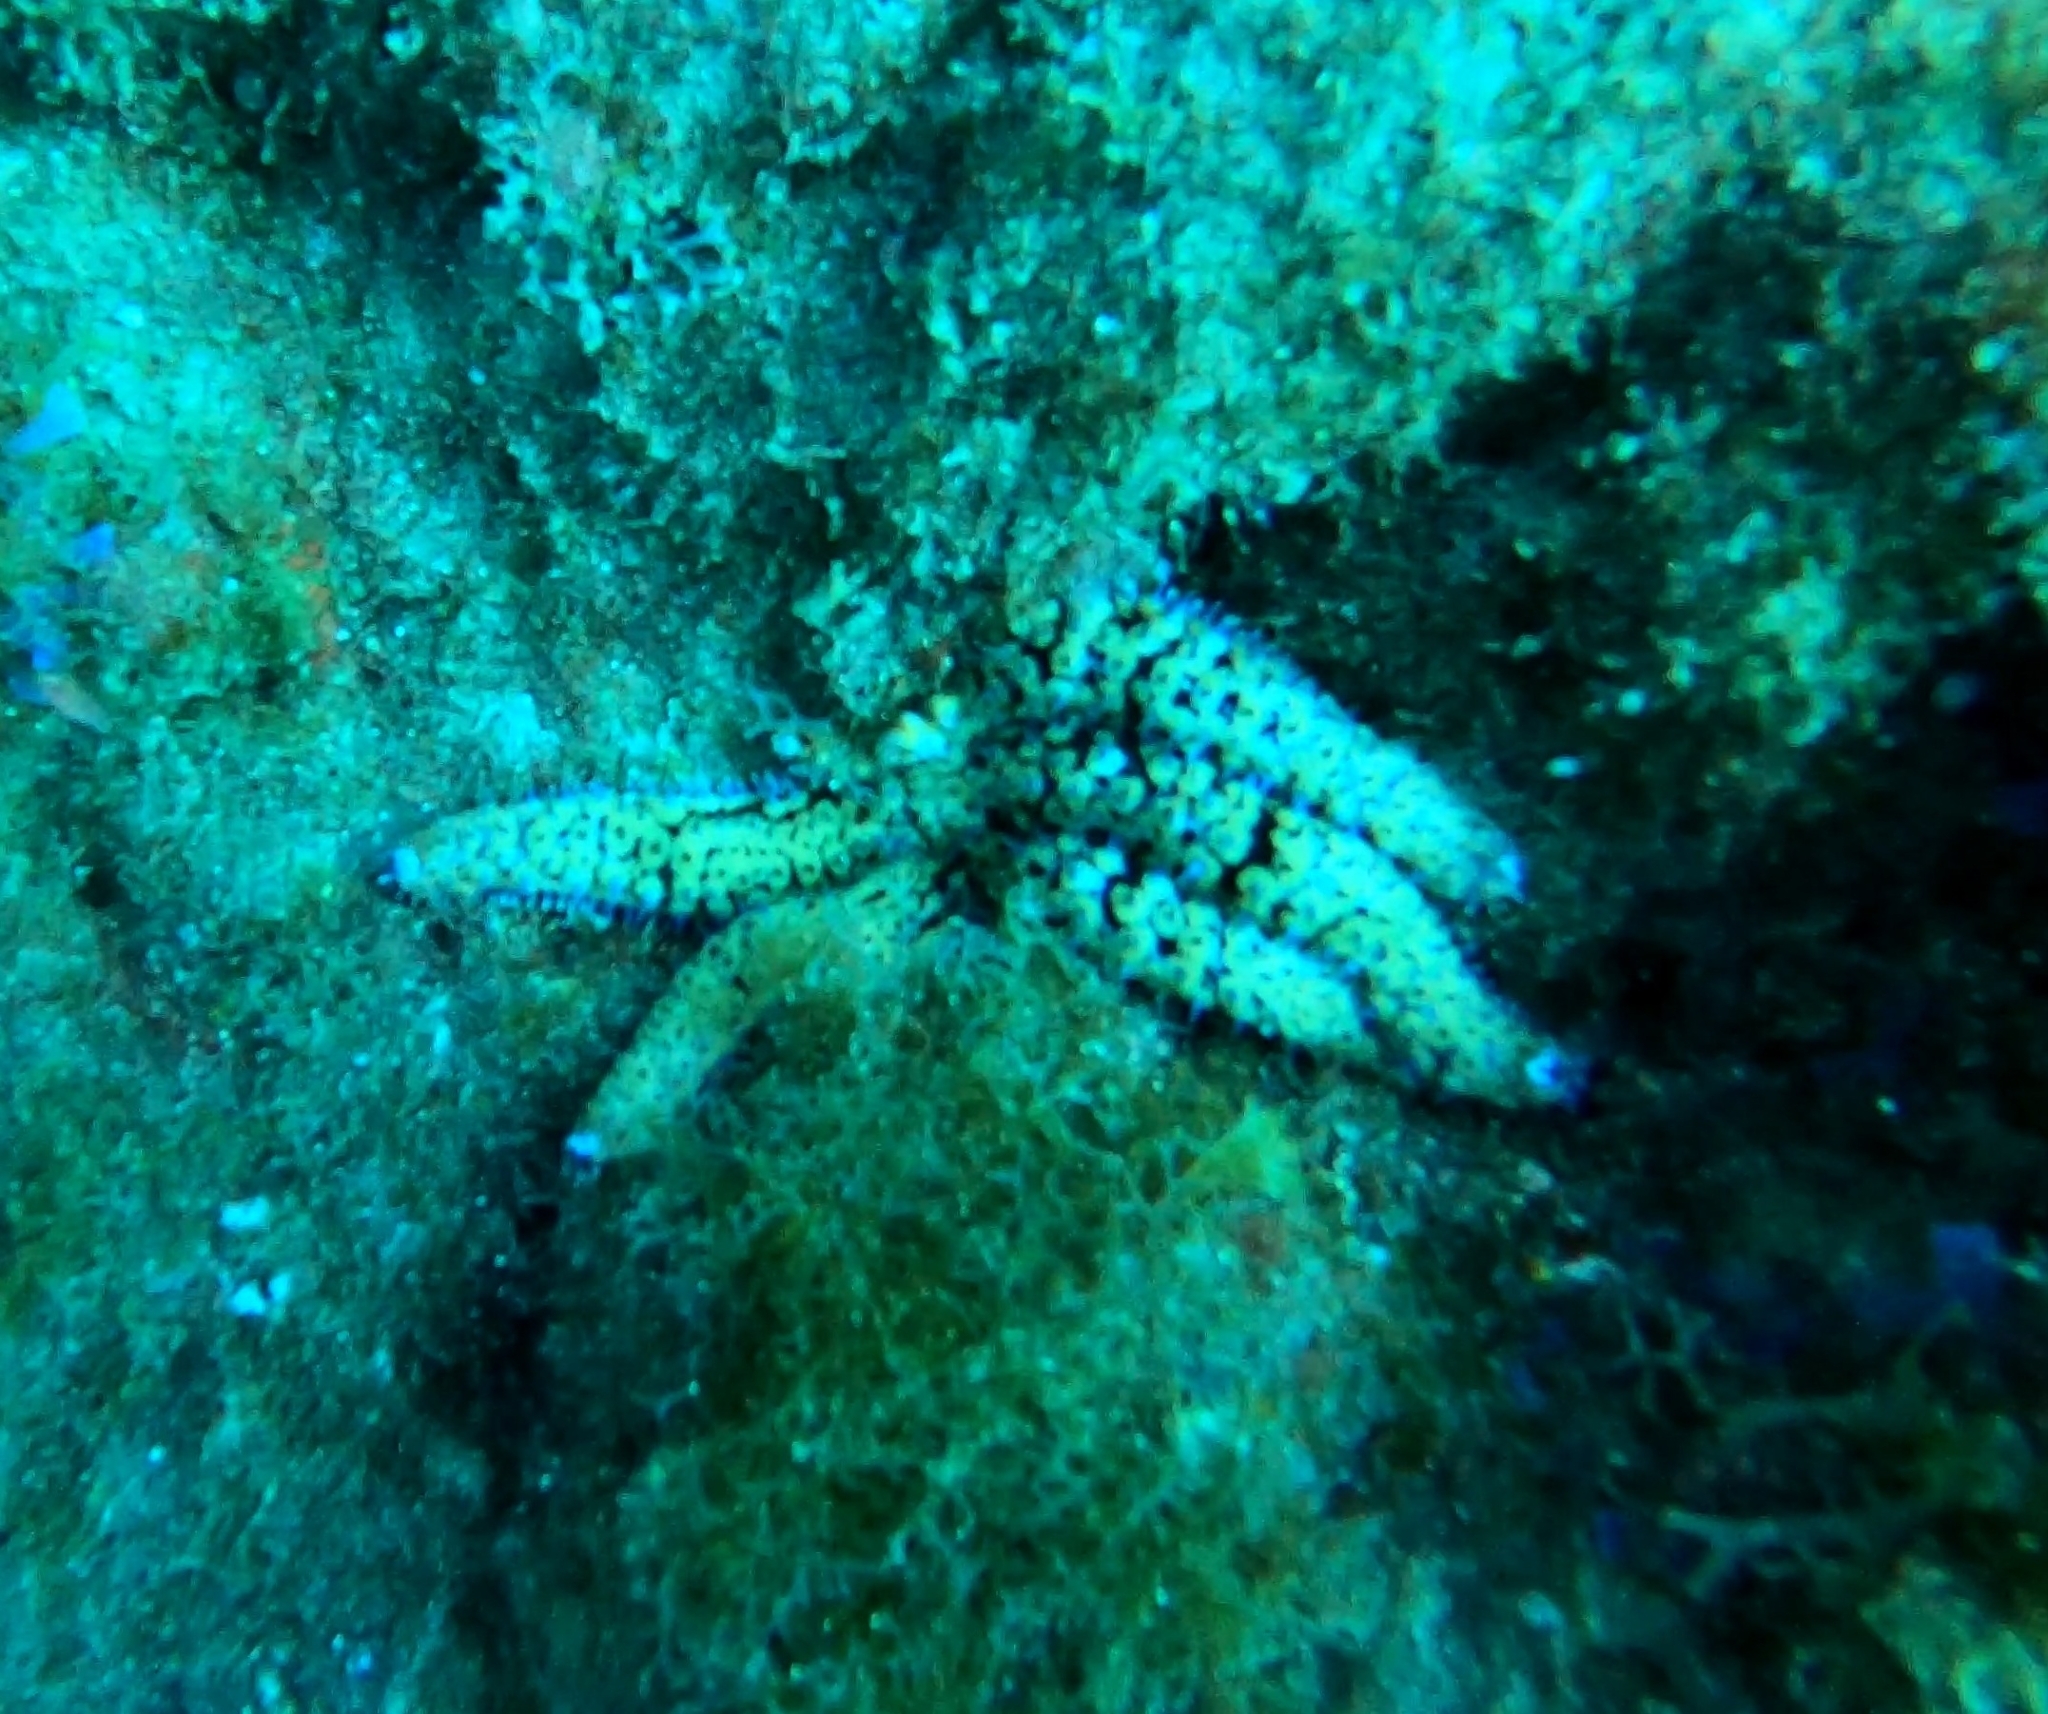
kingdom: Animalia
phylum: Echinodermata
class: Asteroidea
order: Forcipulatida
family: Asteriidae
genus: Coscinasterias
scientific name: Coscinasterias tenuispina
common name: Blue spiny starfish
